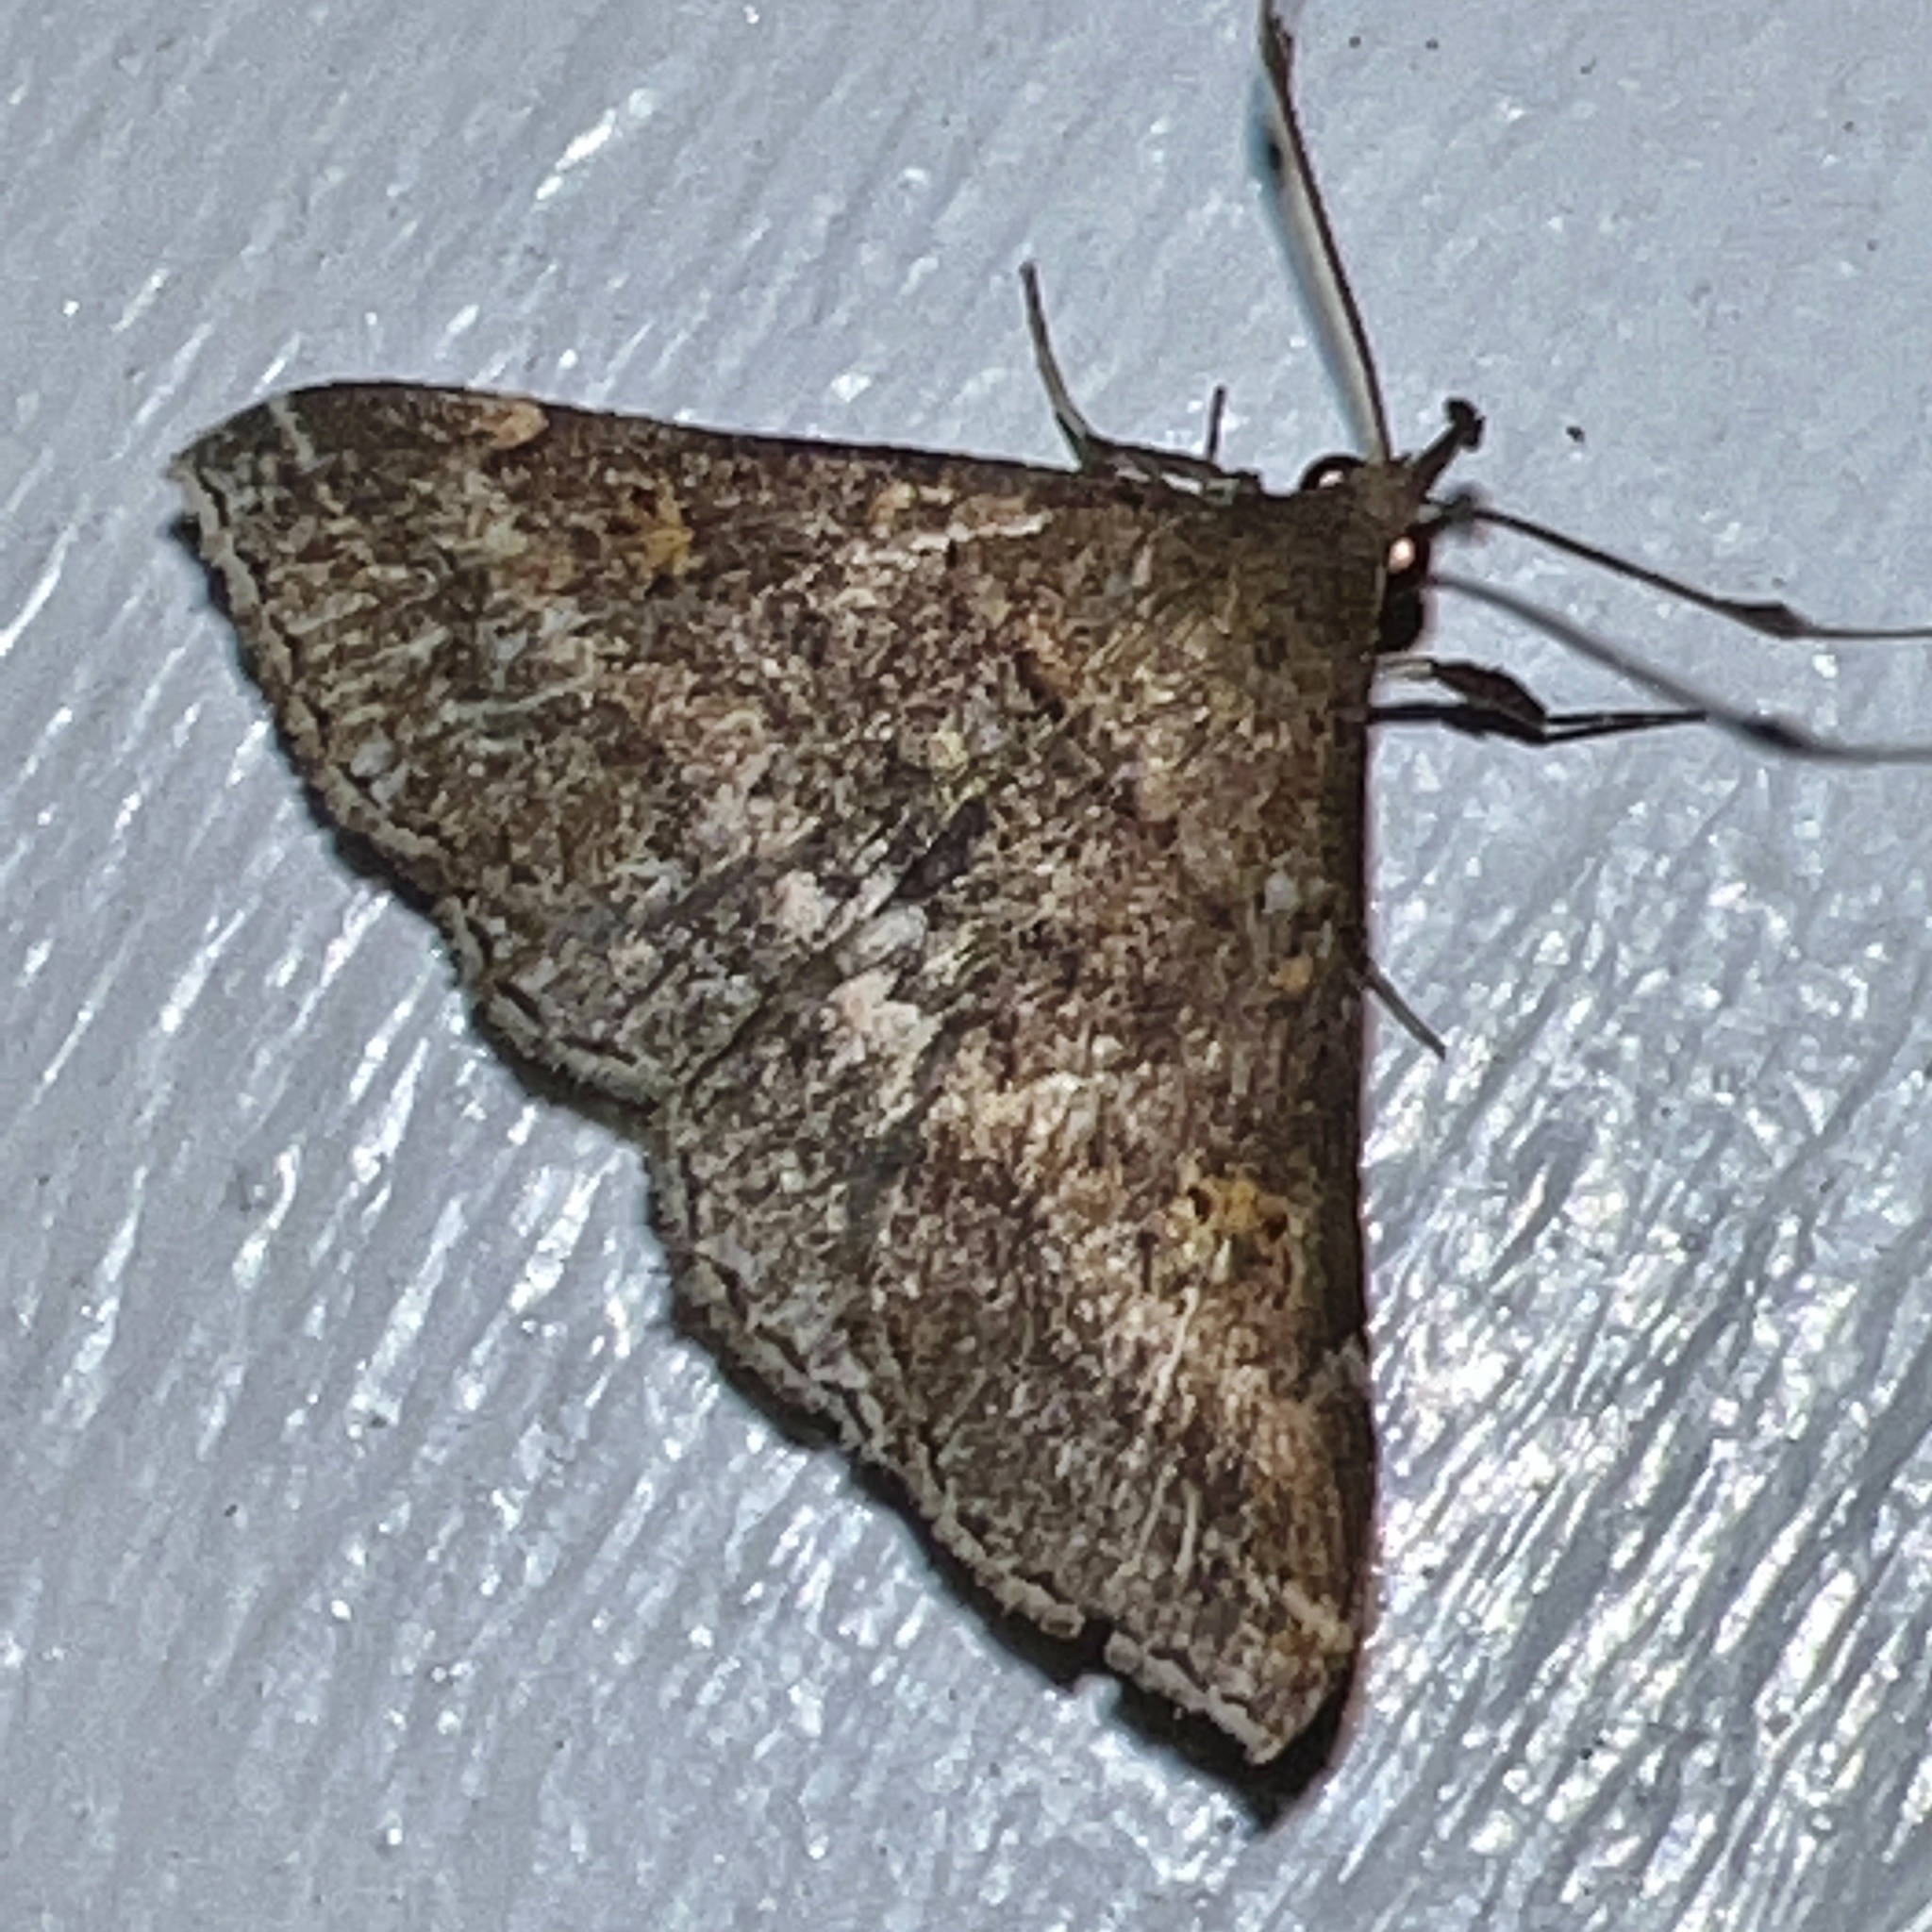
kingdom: Animalia
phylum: Arthropoda
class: Insecta
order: Lepidoptera
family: Erebidae
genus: Renia
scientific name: Renia factiosalis
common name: Sociable renia moth
